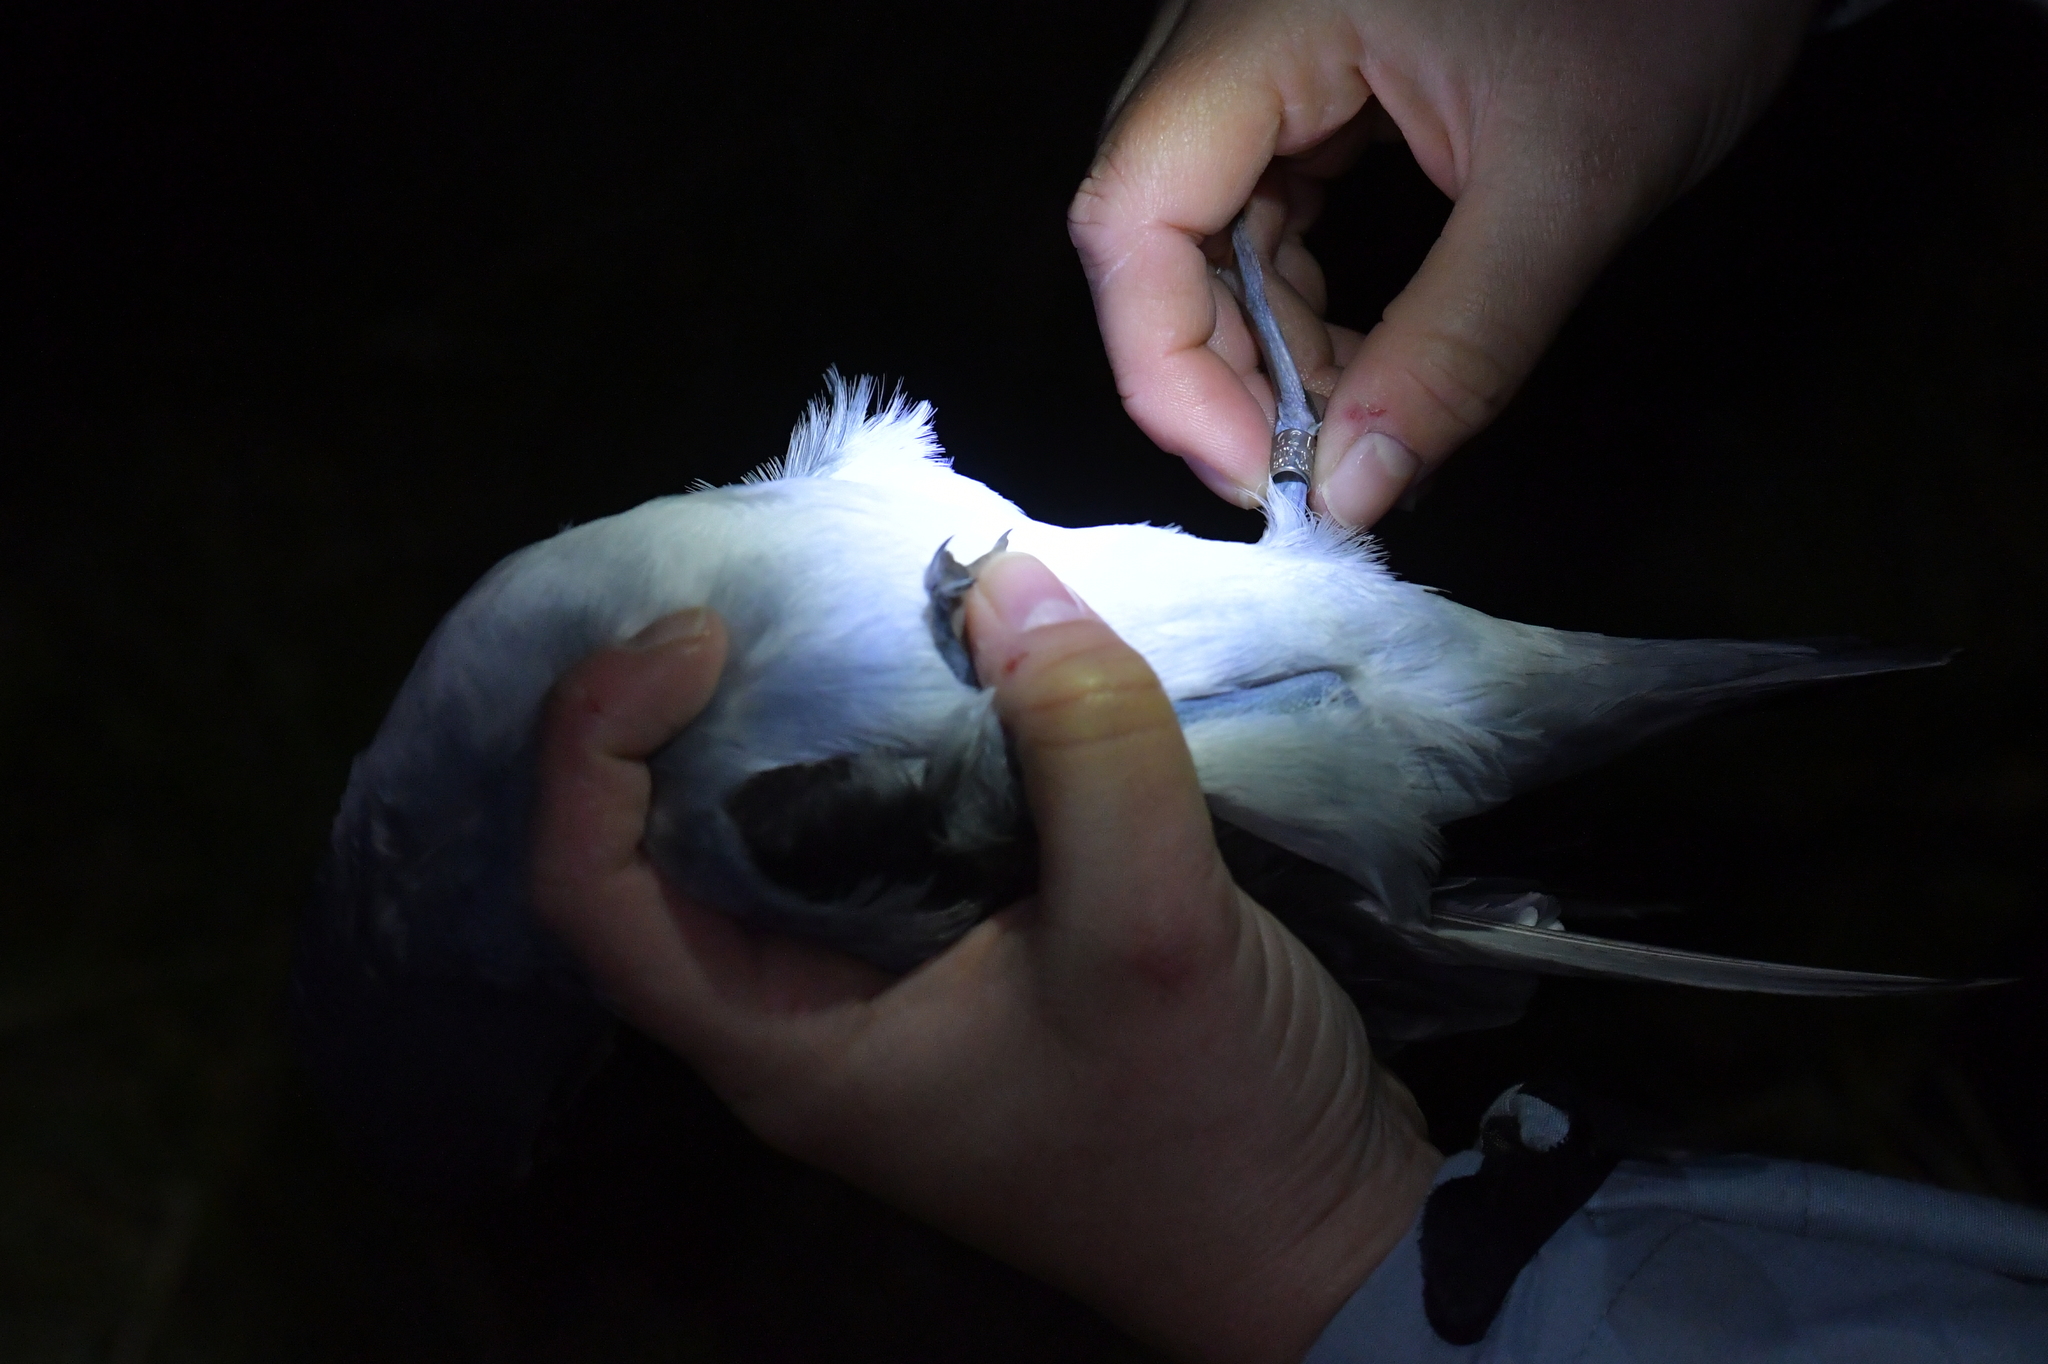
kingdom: Animalia
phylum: Chordata
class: Aves
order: Procellariiformes
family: Procellariidae
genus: Pachyptila
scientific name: Pachyptila turtur
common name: Fairy prion
